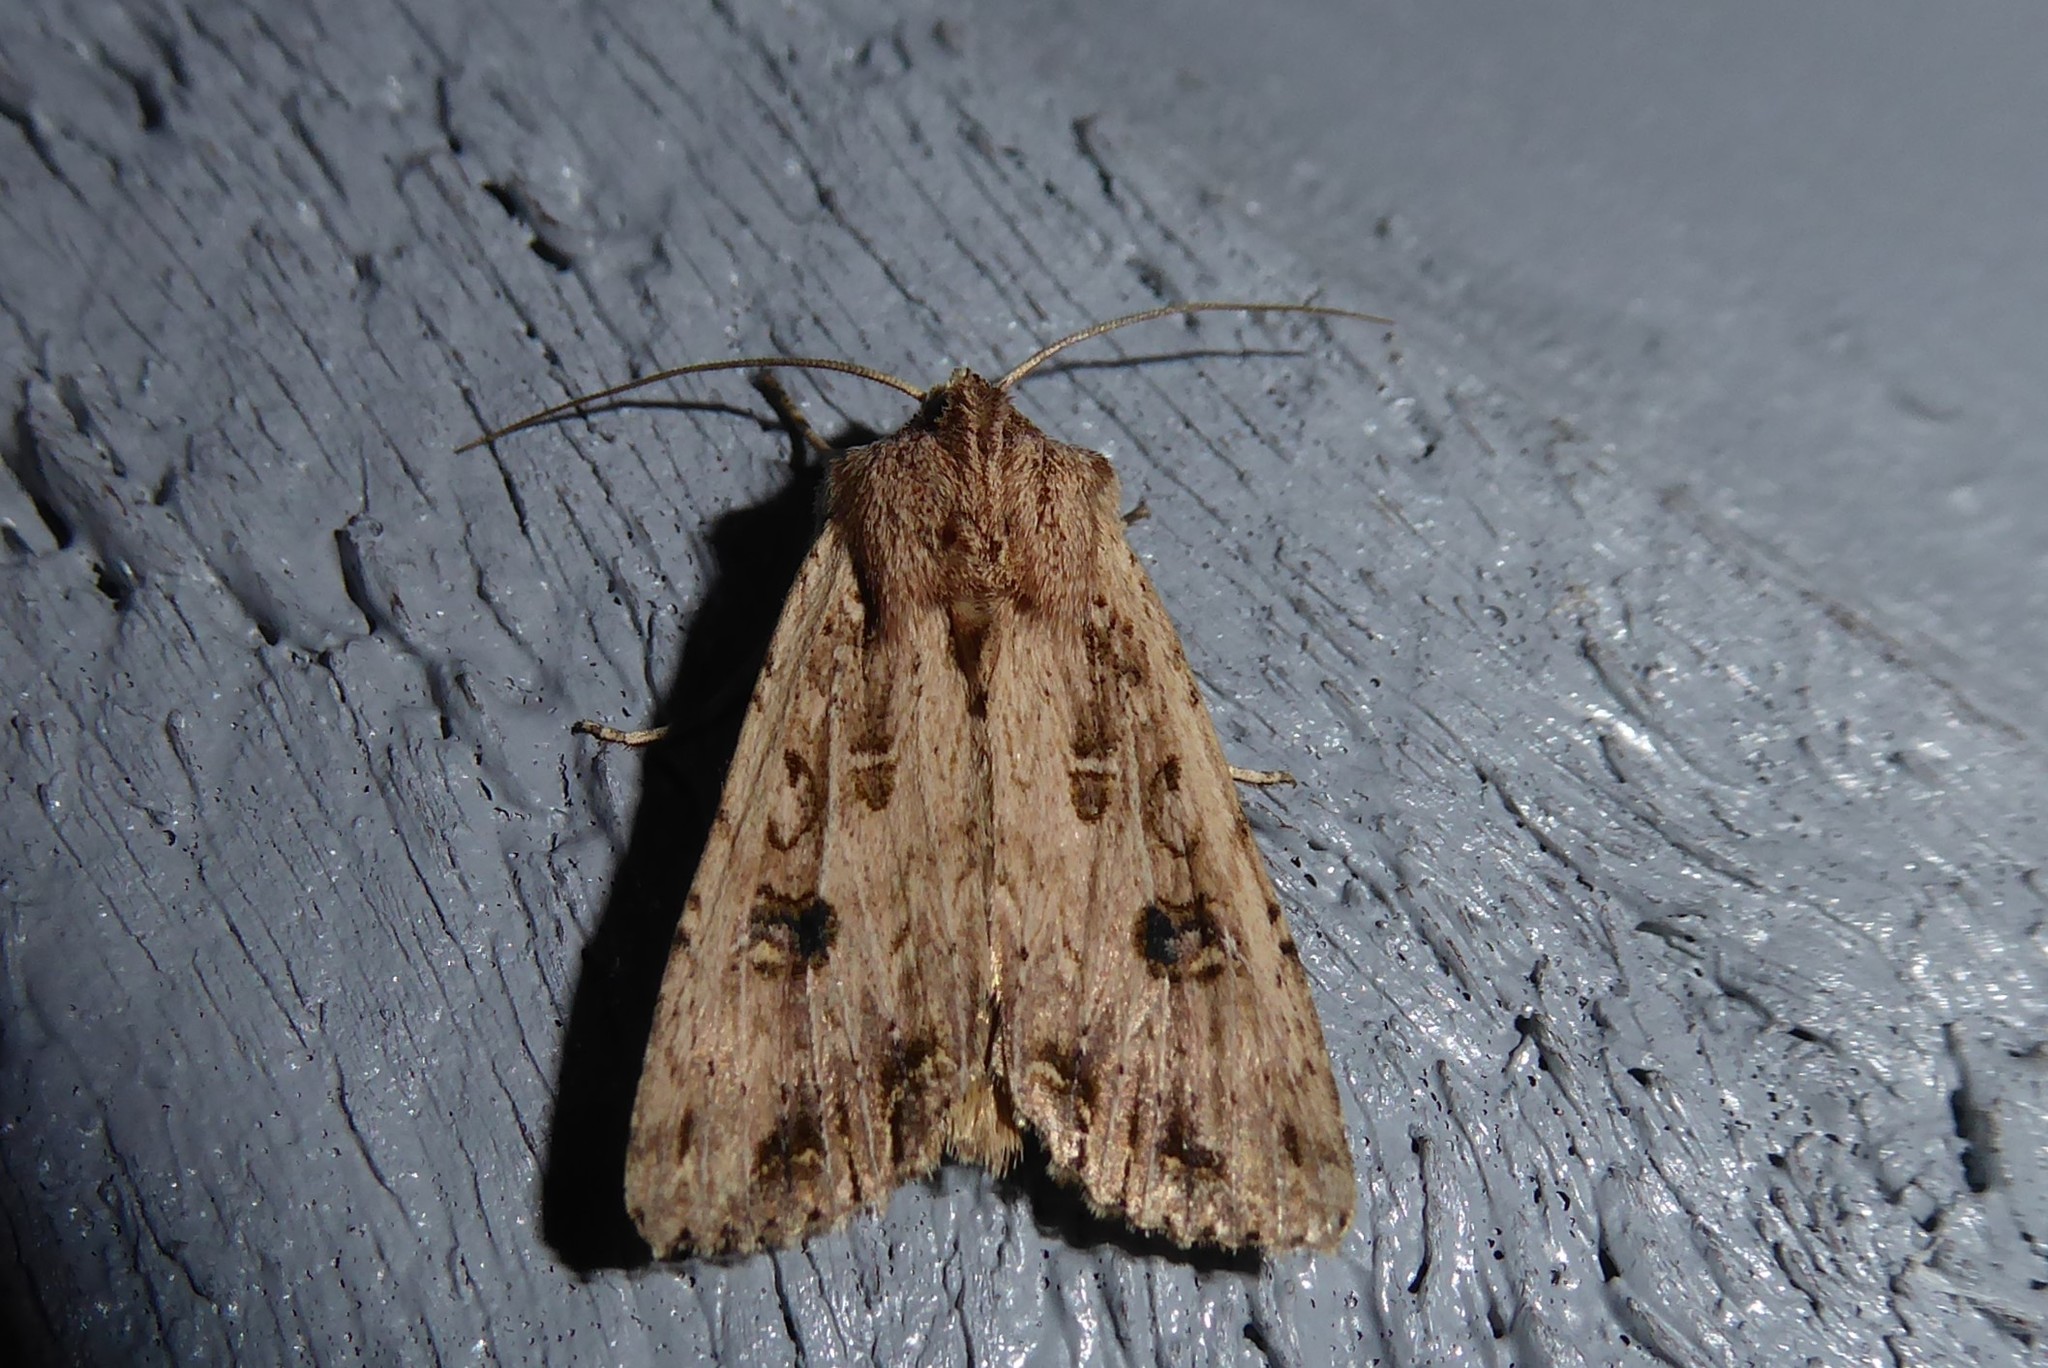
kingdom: Animalia
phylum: Arthropoda
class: Insecta
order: Lepidoptera
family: Noctuidae
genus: Ichneutica
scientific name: Ichneutica lignana
